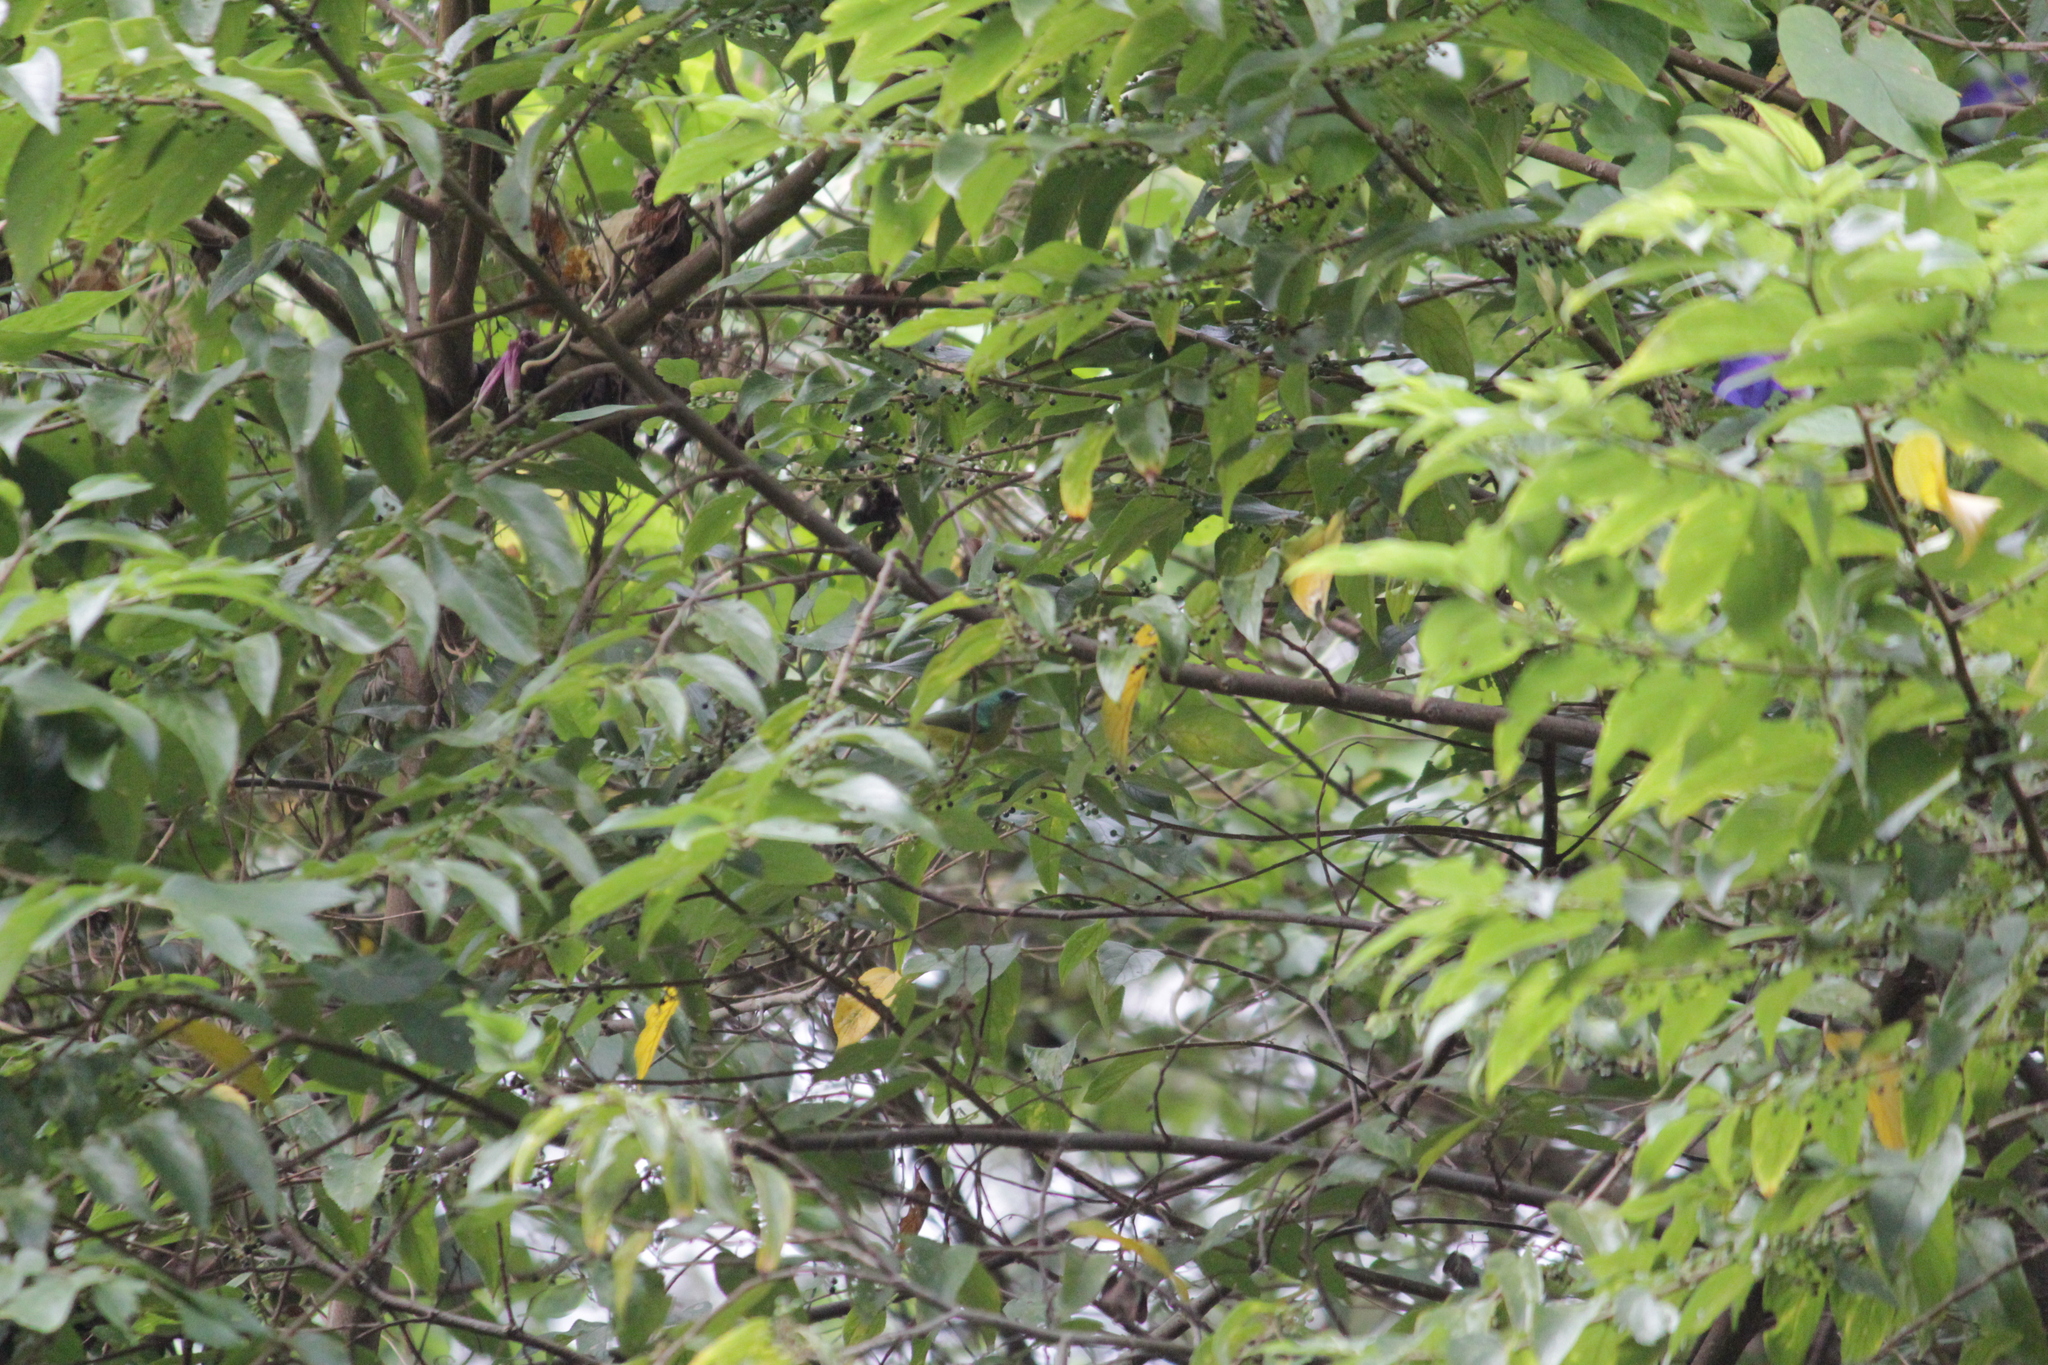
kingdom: Animalia
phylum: Chordata
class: Aves
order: Passeriformes
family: Nectariniidae
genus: Hedydipna
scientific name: Hedydipna collaris
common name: Collared sunbird
